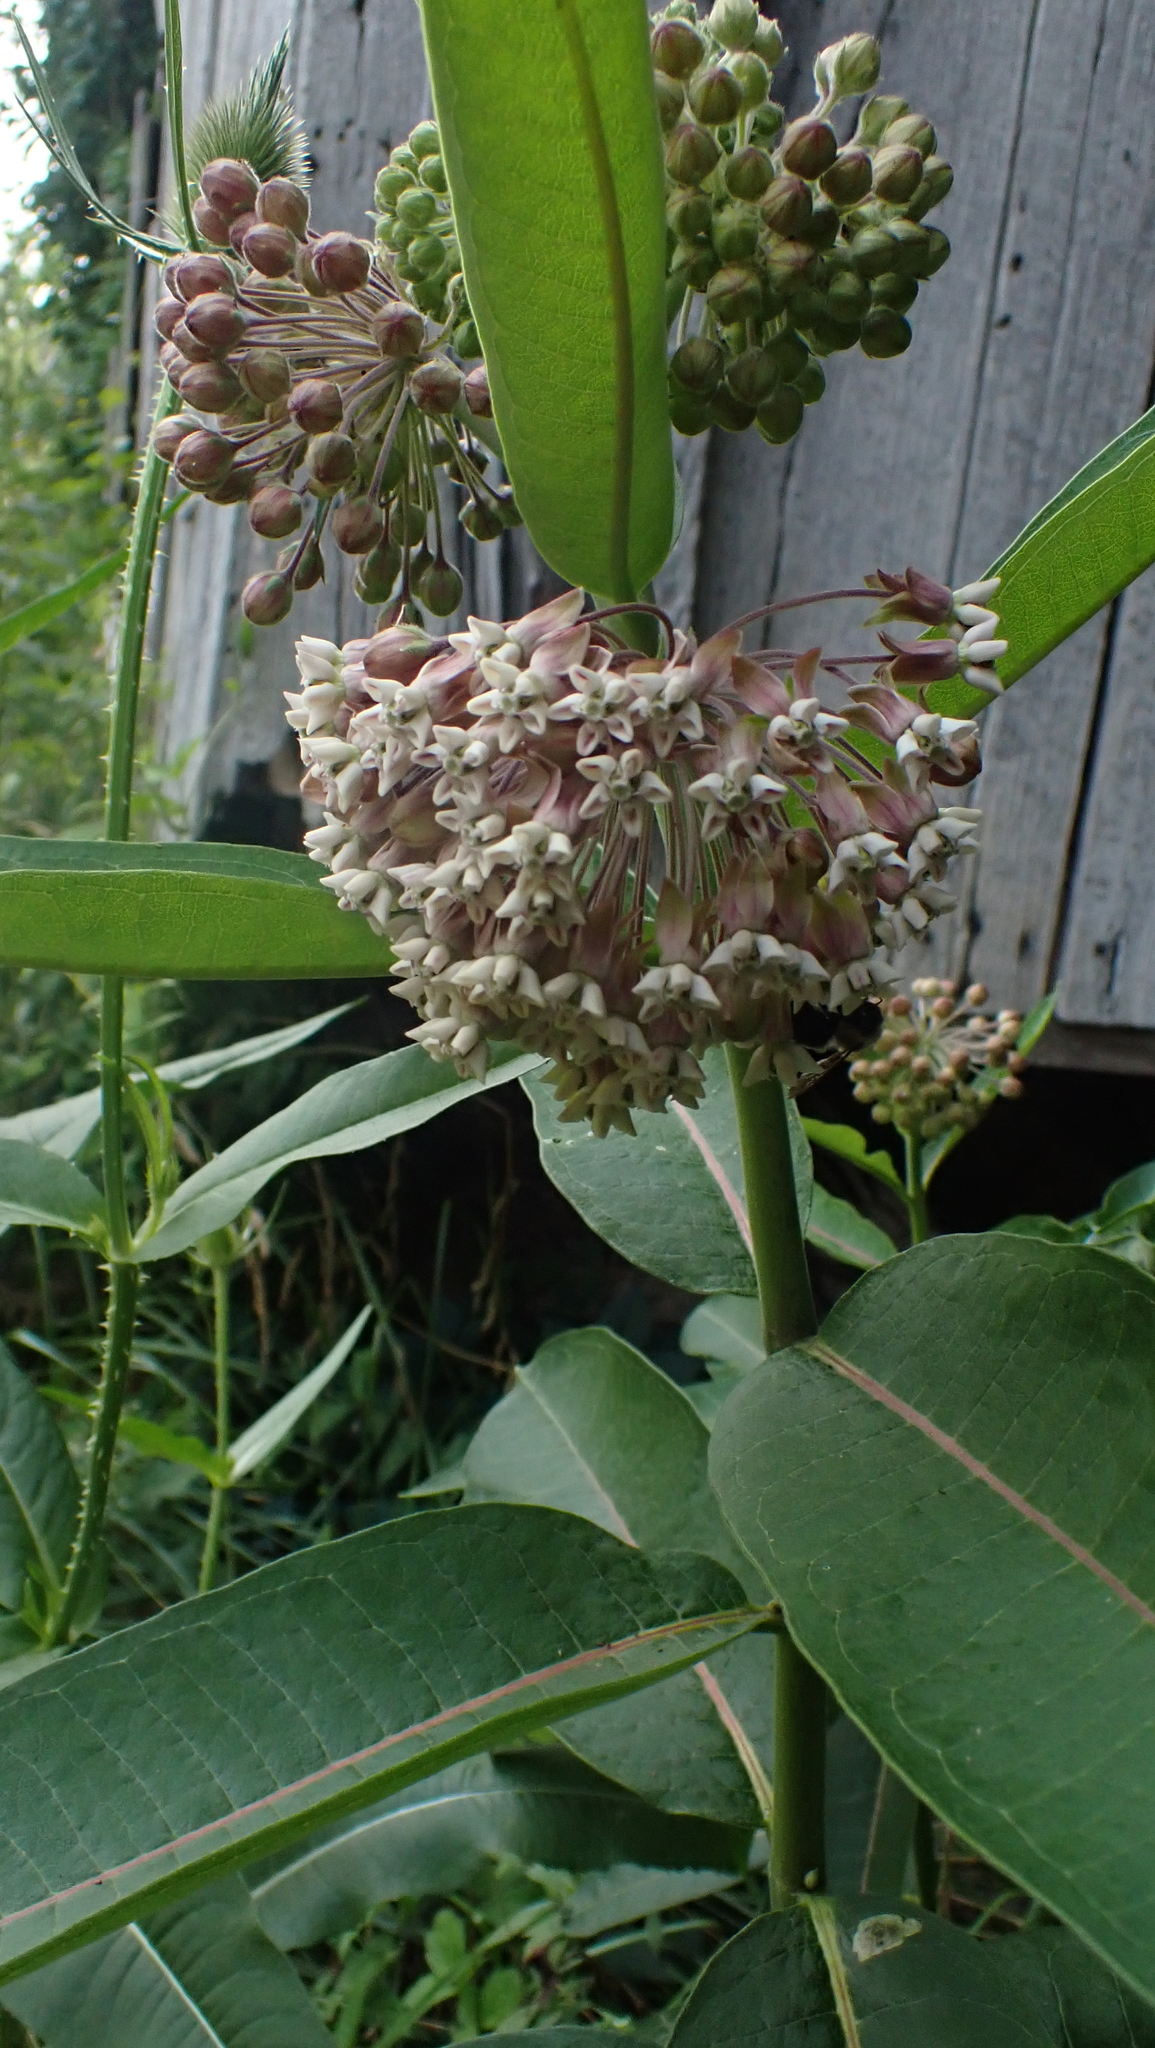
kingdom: Plantae
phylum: Tracheophyta
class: Magnoliopsida
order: Gentianales
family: Apocynaceae
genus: Asclepias
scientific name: Asclepias syriaca
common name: Common milkweed
